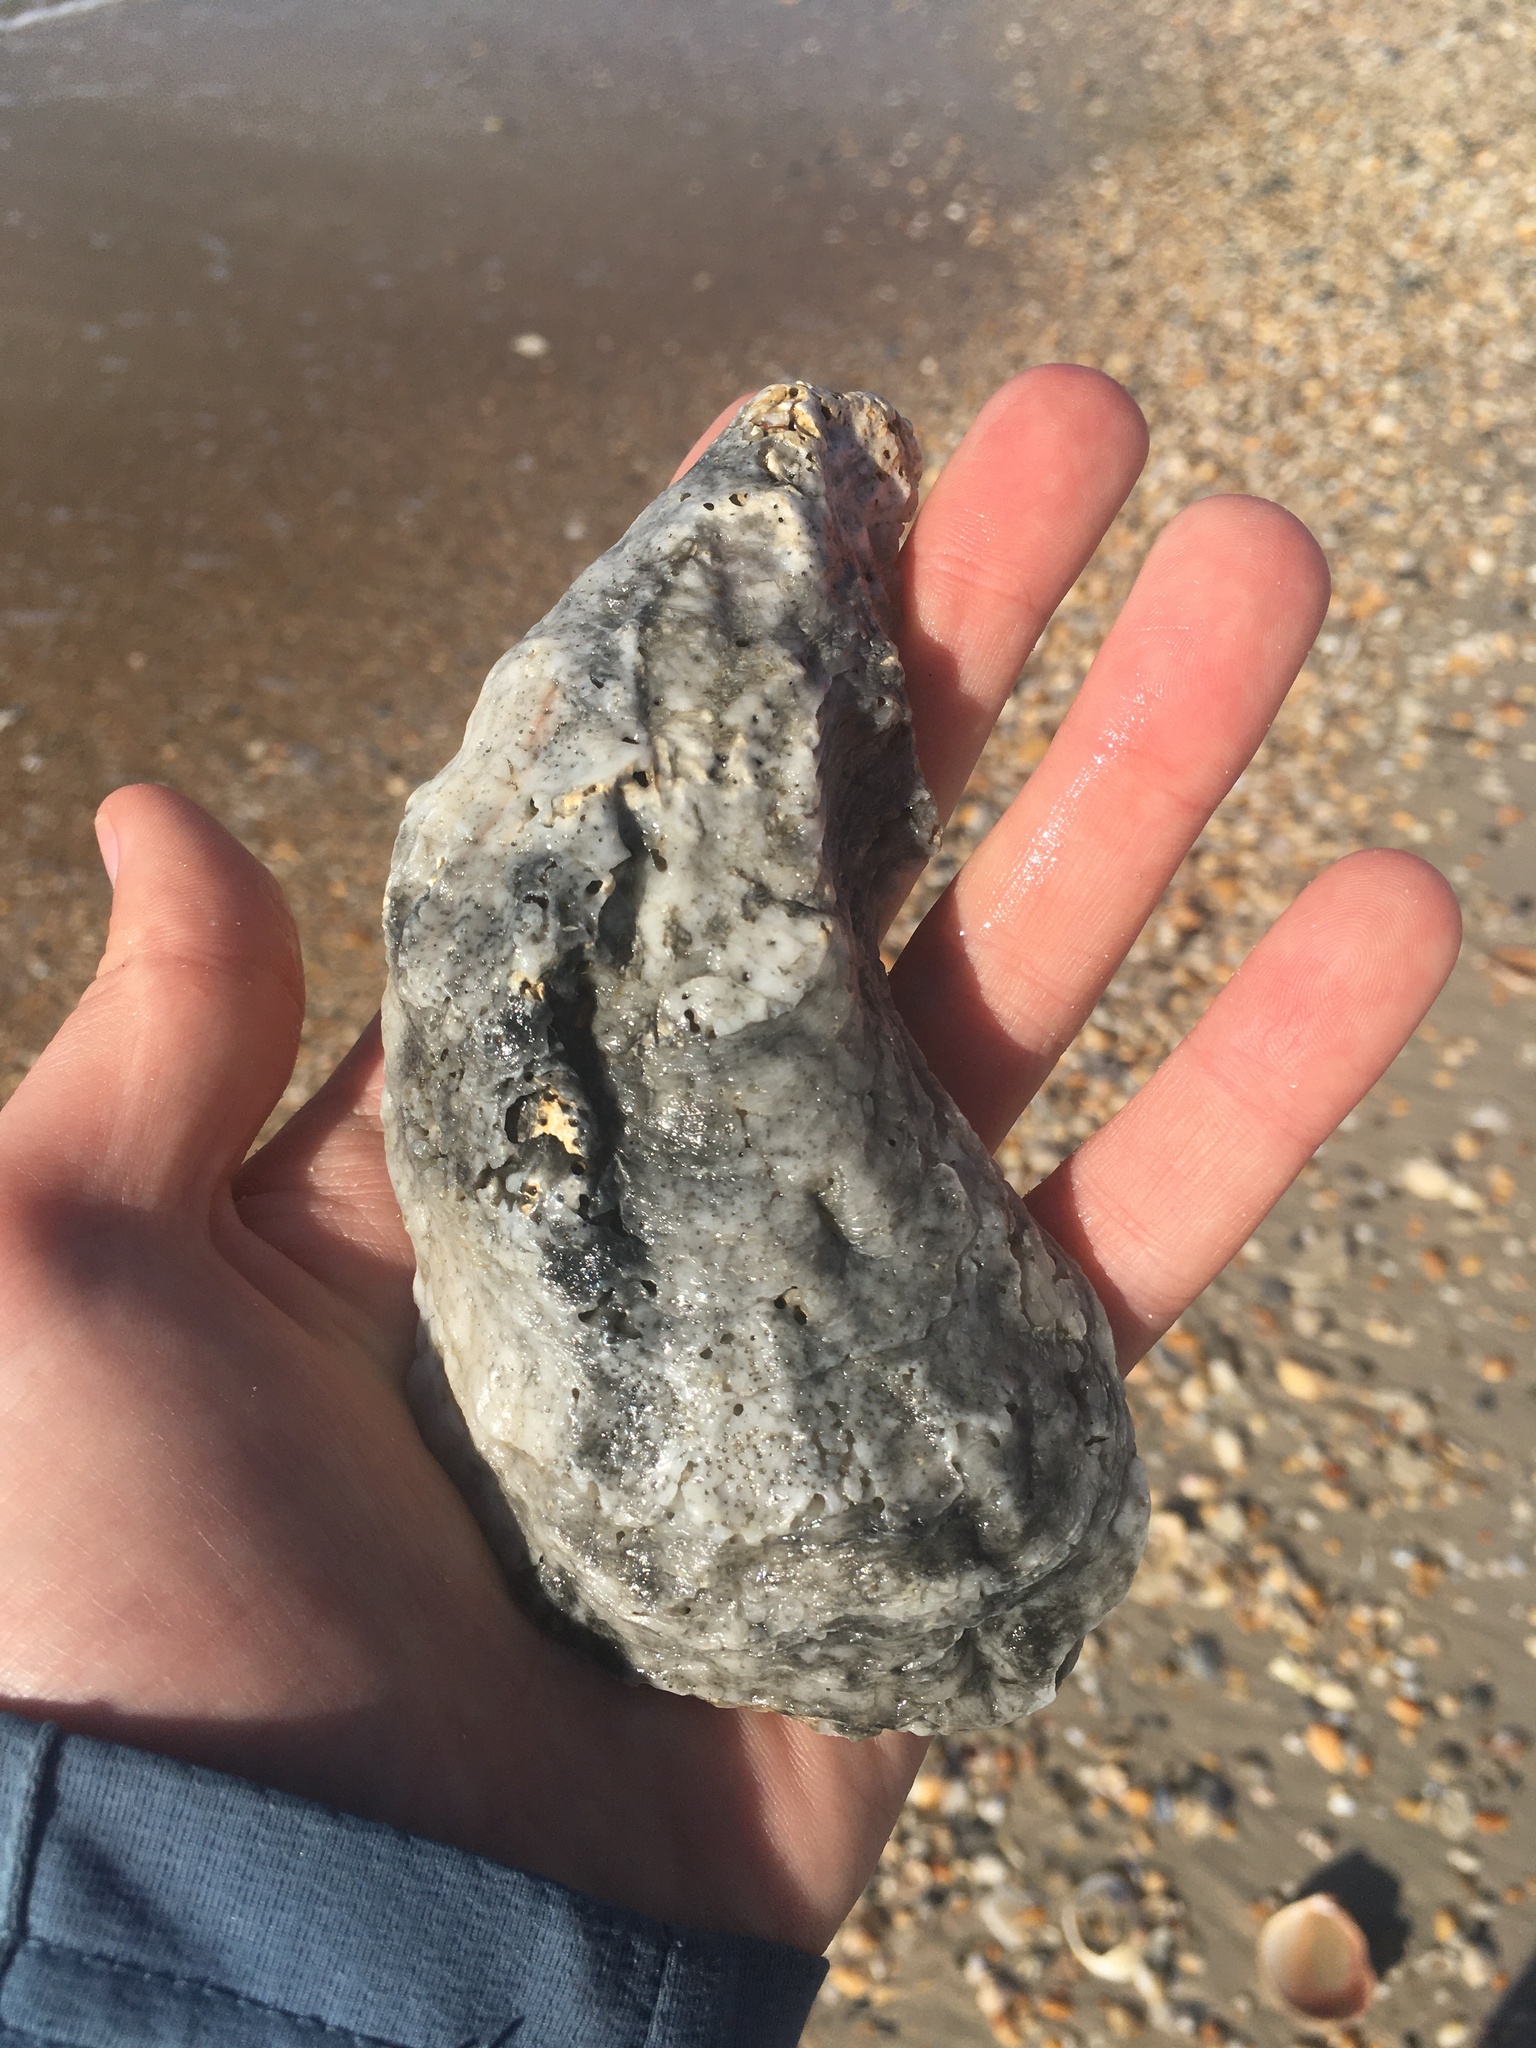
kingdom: Animalia
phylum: Mollusca
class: Bivalvia
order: Ostreida
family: Ostreidae
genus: Crassostrea
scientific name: Crassostrea virginica
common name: American oyster
